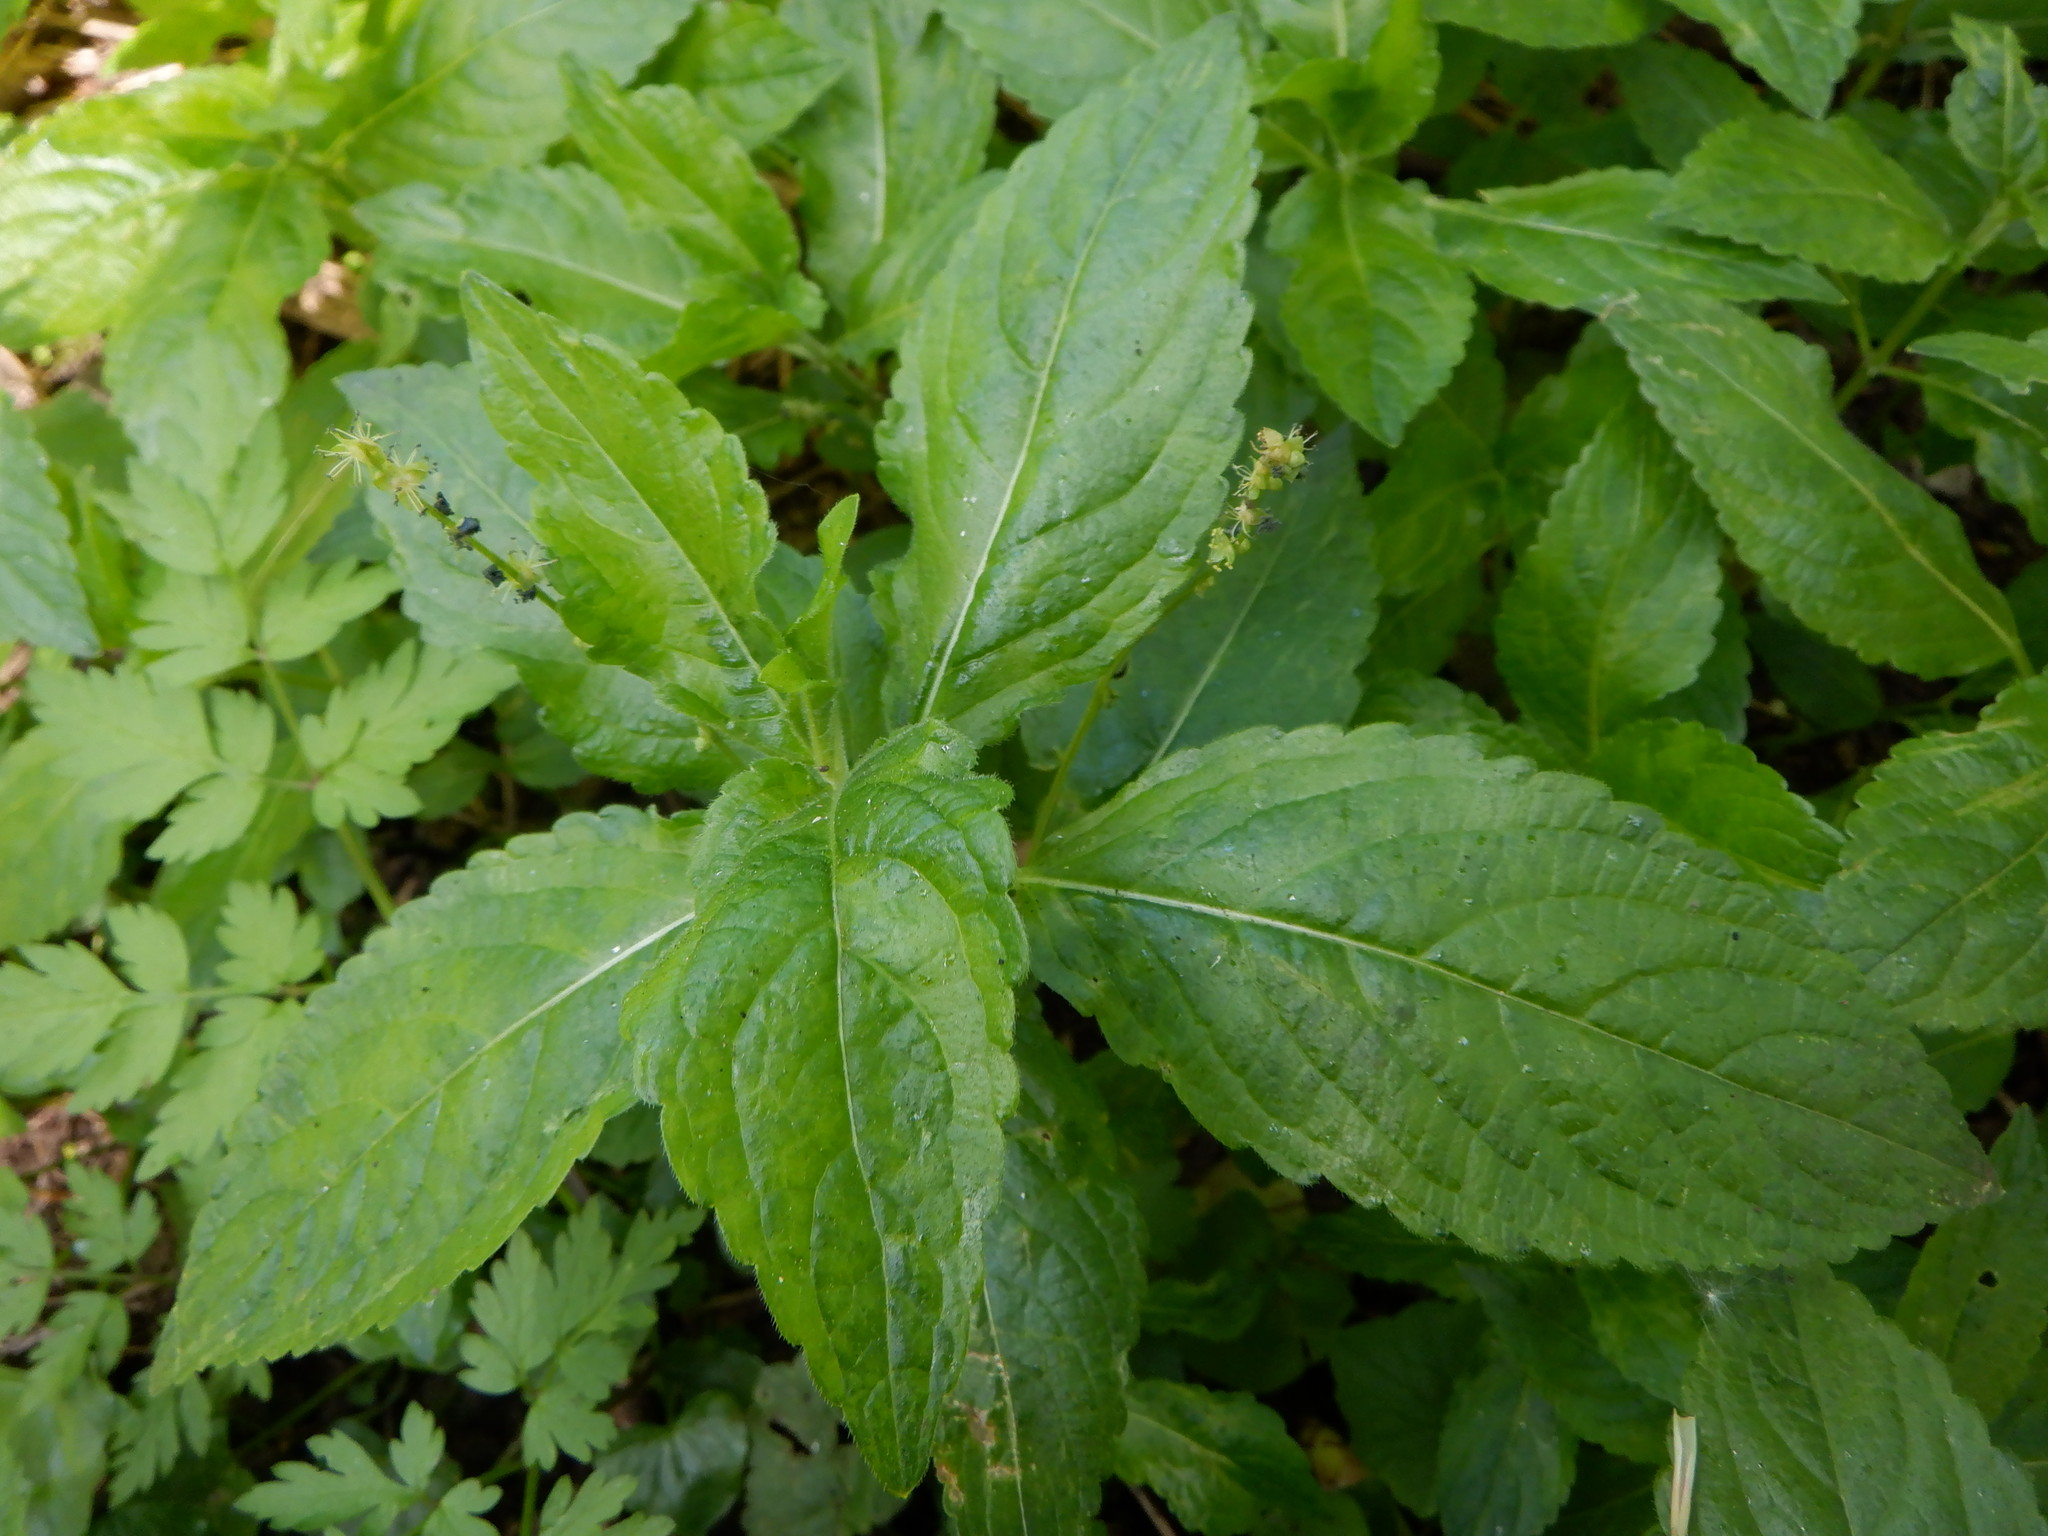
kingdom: Plantae
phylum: Tracheophyta
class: Magnoliopsida
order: Malpighiales
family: Euphorbiaceae
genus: Mercurialis
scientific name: Mercurialis perennis
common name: Dog mercury
